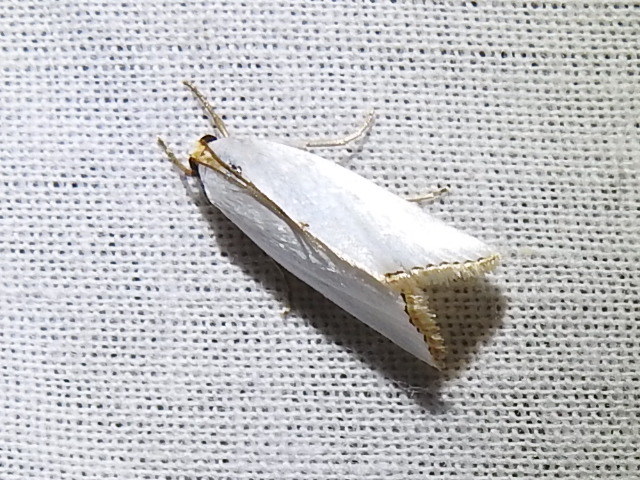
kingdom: Animalia
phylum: Arthropoda
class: Insecta
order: Lepidoptera
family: Crambidae
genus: Argyria
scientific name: Argyria nivalis
